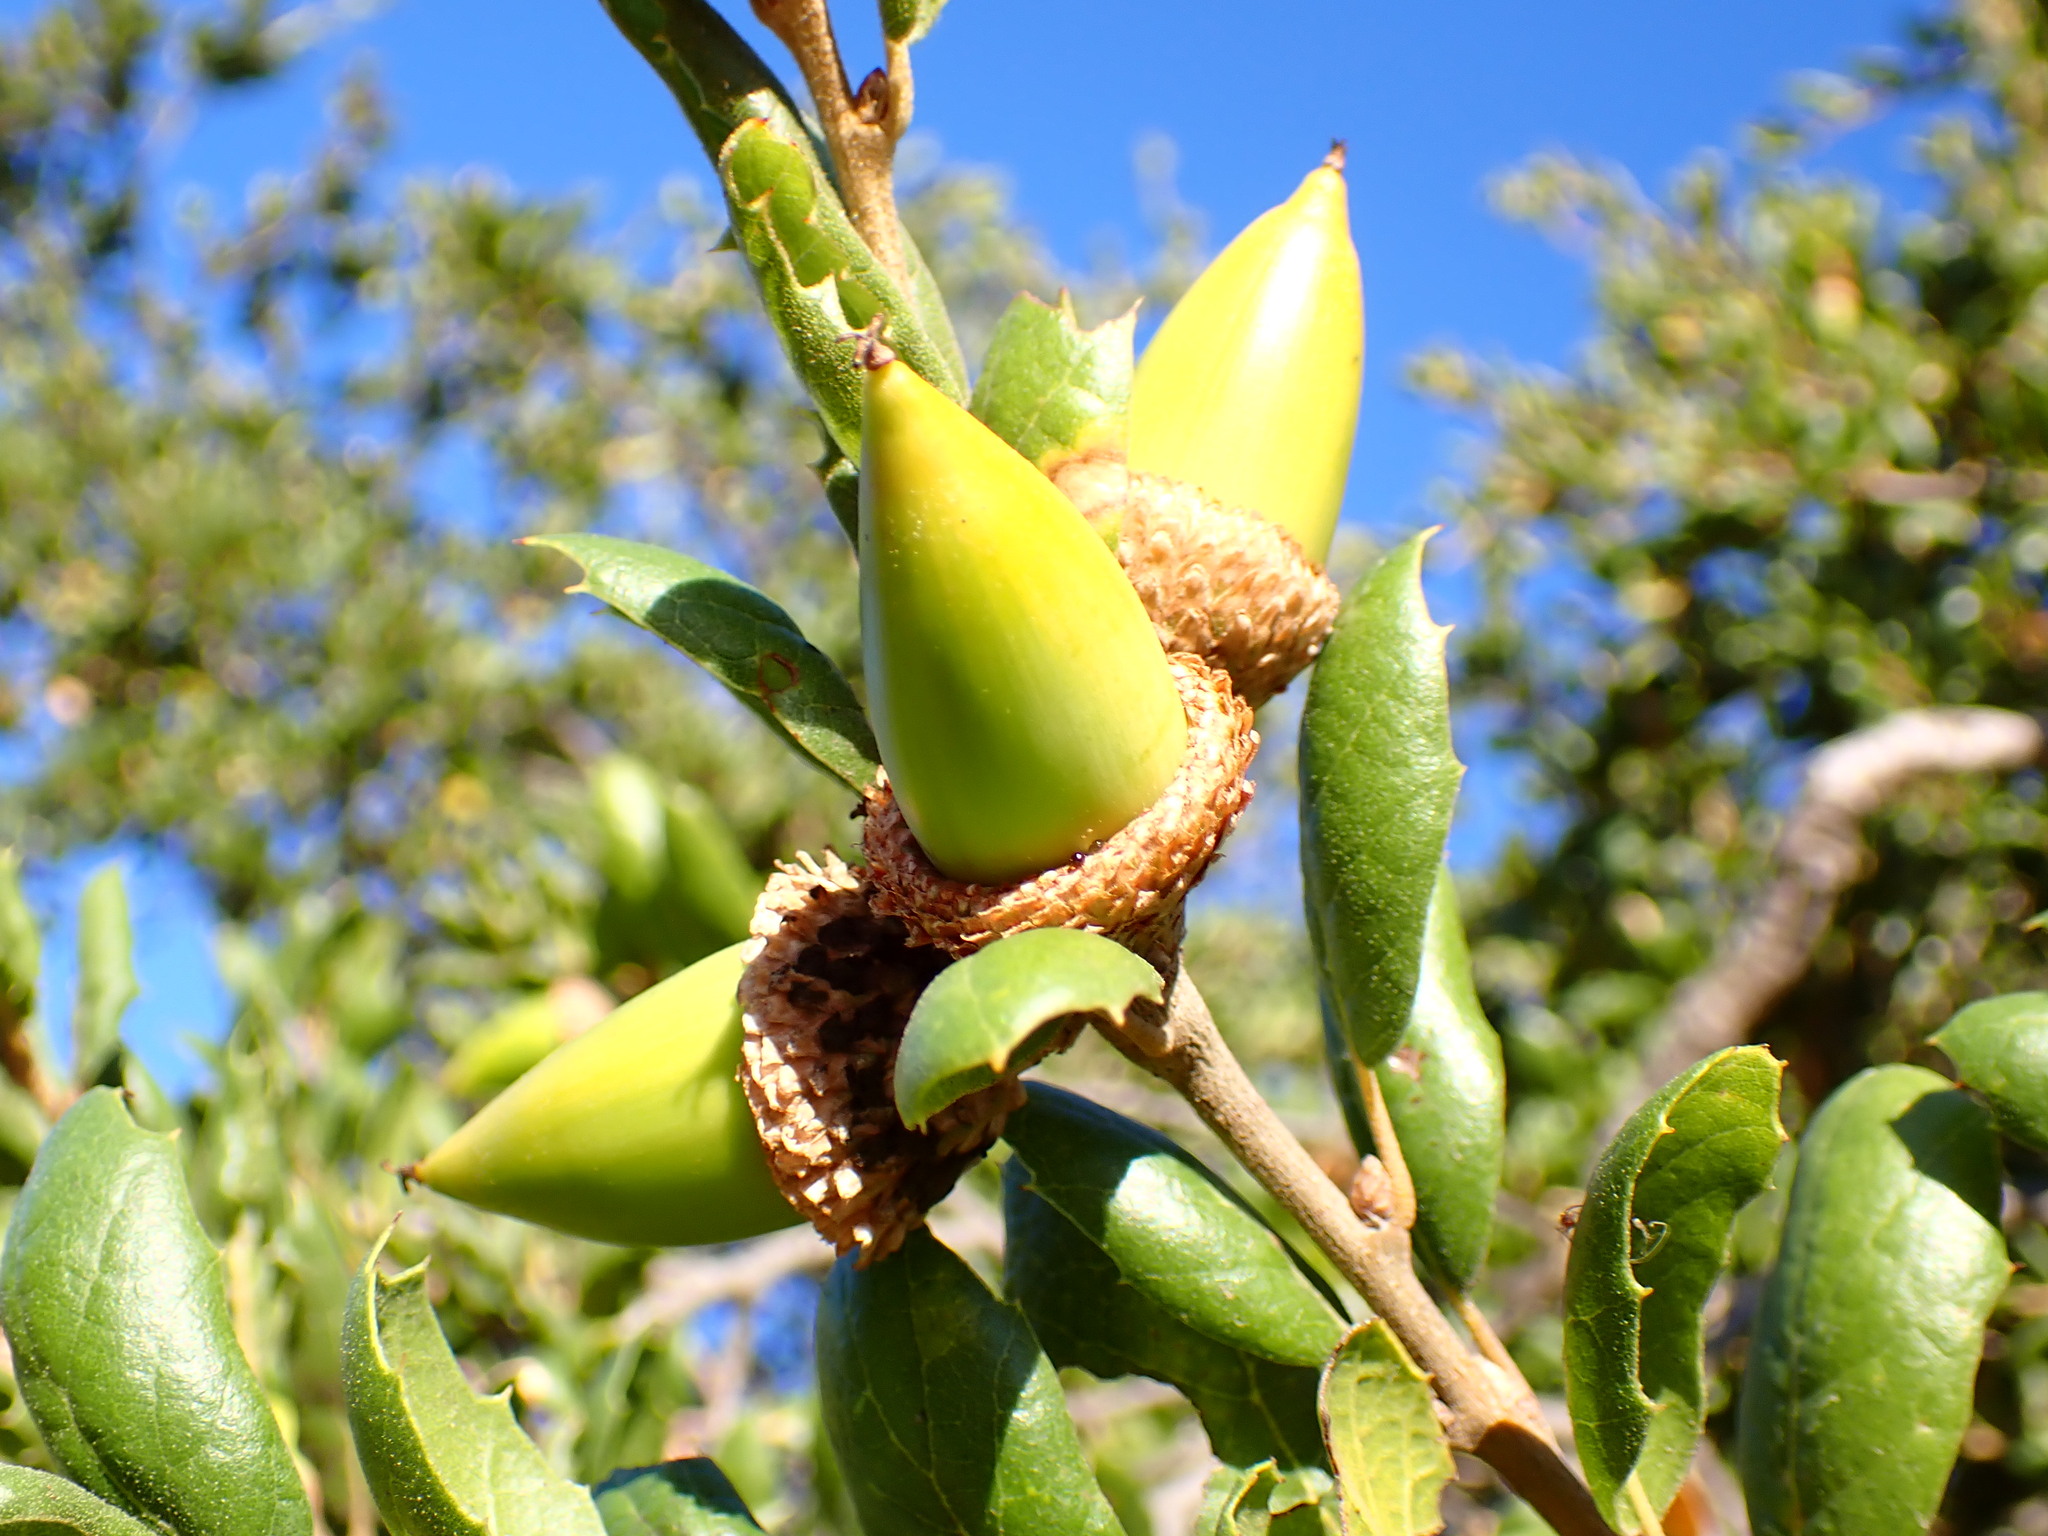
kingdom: Plantae
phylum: Tracheophyta
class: Magnoliopsida
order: Fagales
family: Fagaceae
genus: Quercus
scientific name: Quercus agrifolia
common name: California live oak
